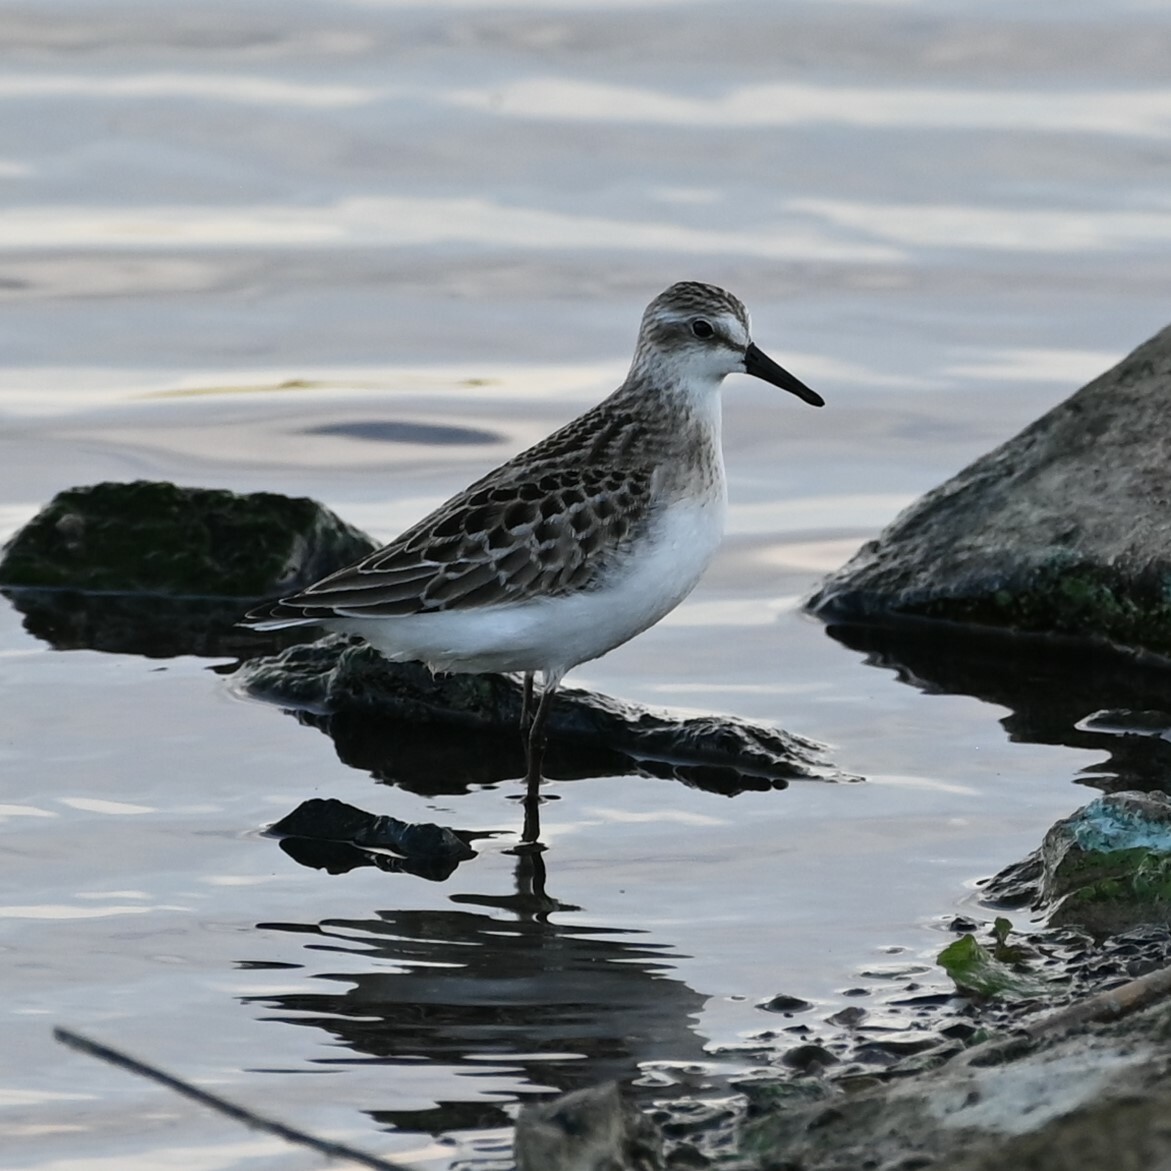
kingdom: Animalia
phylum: Chordata
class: Aves
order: Charadriiformes
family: Scolopacidae
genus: Calidris
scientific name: Calidris pusilla
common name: Semipalmated sandpiper
